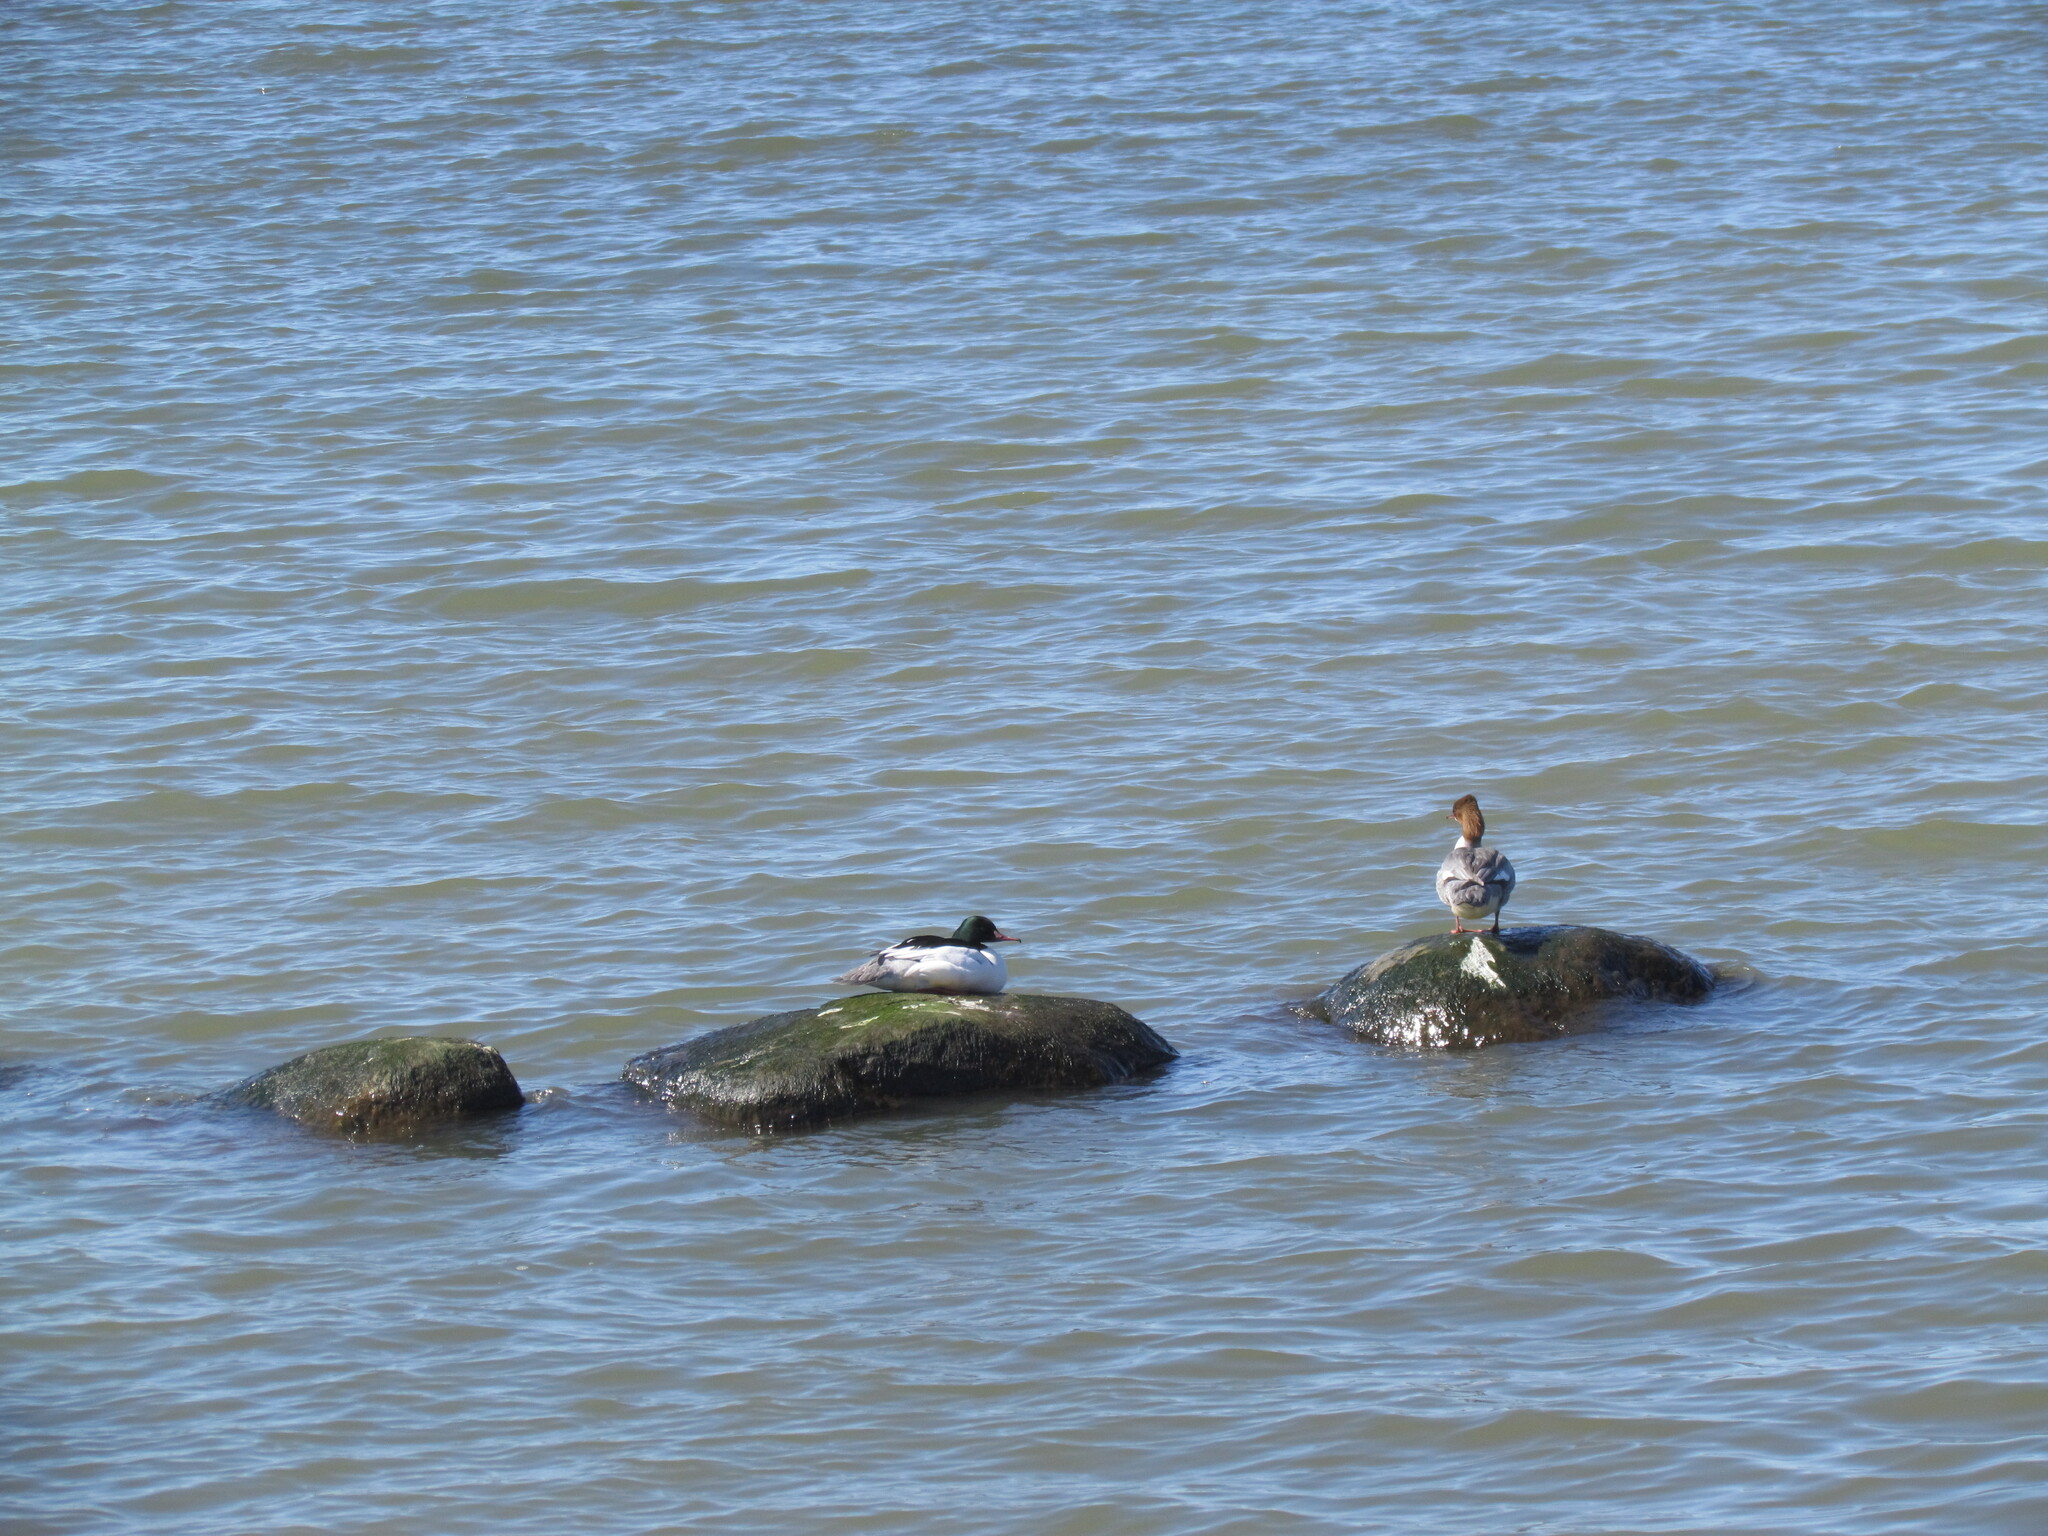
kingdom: Animalia
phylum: Chordata
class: Aves
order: Anseriformes
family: Anatidae
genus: Mergus
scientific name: Mergus merganser
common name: Common merganser
